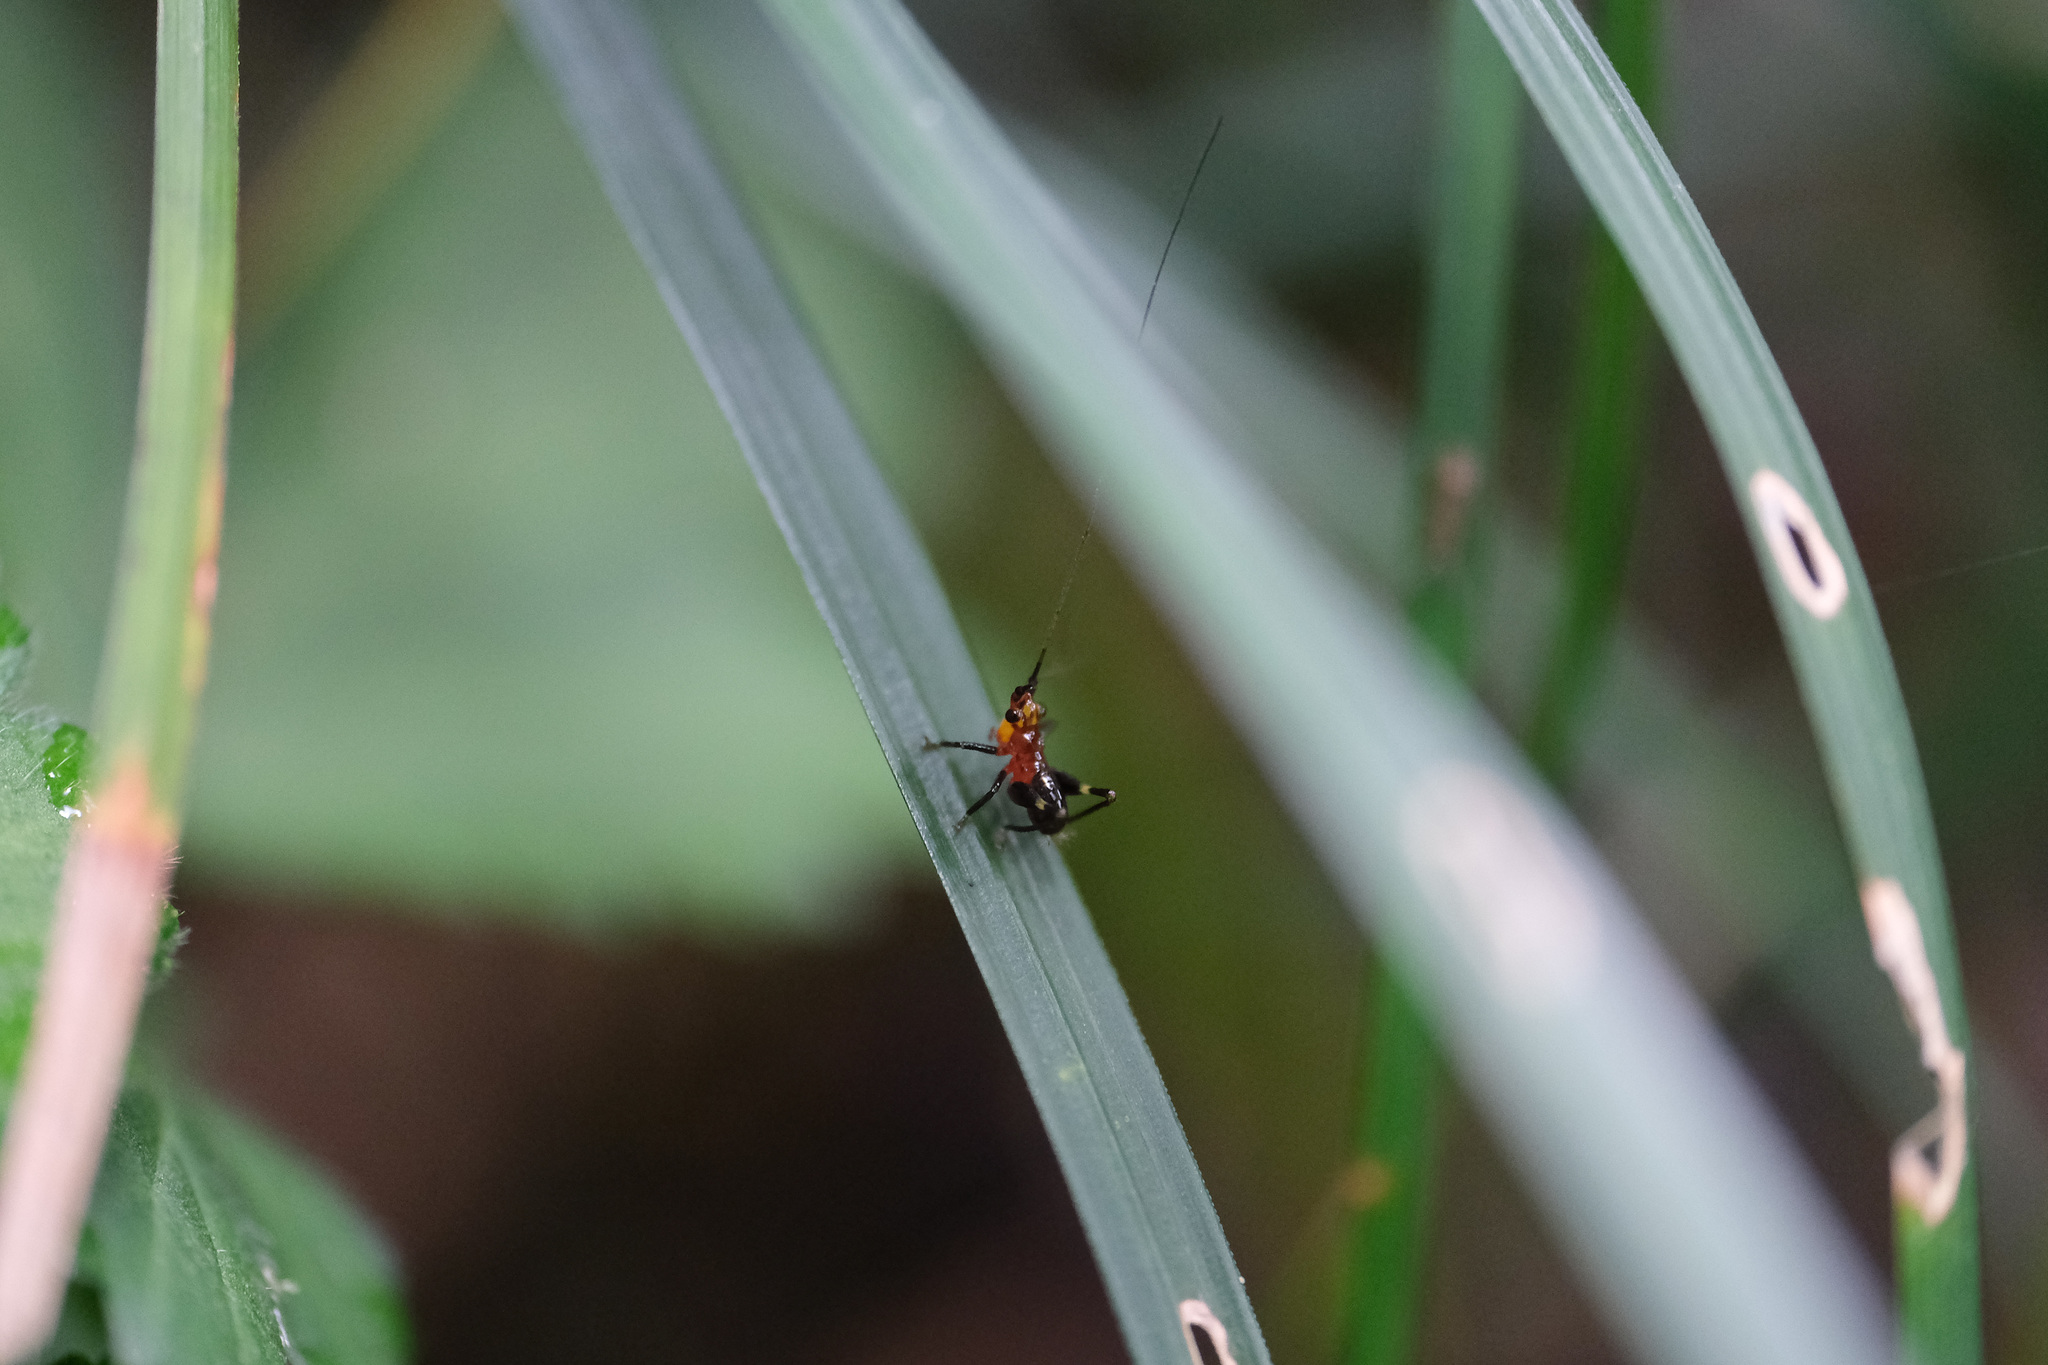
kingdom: Animalia
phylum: Arthropoda
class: Insecta
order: Orthoptera
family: Tettigoniidae
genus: Conocephalus
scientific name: Conocephalus melaenus
